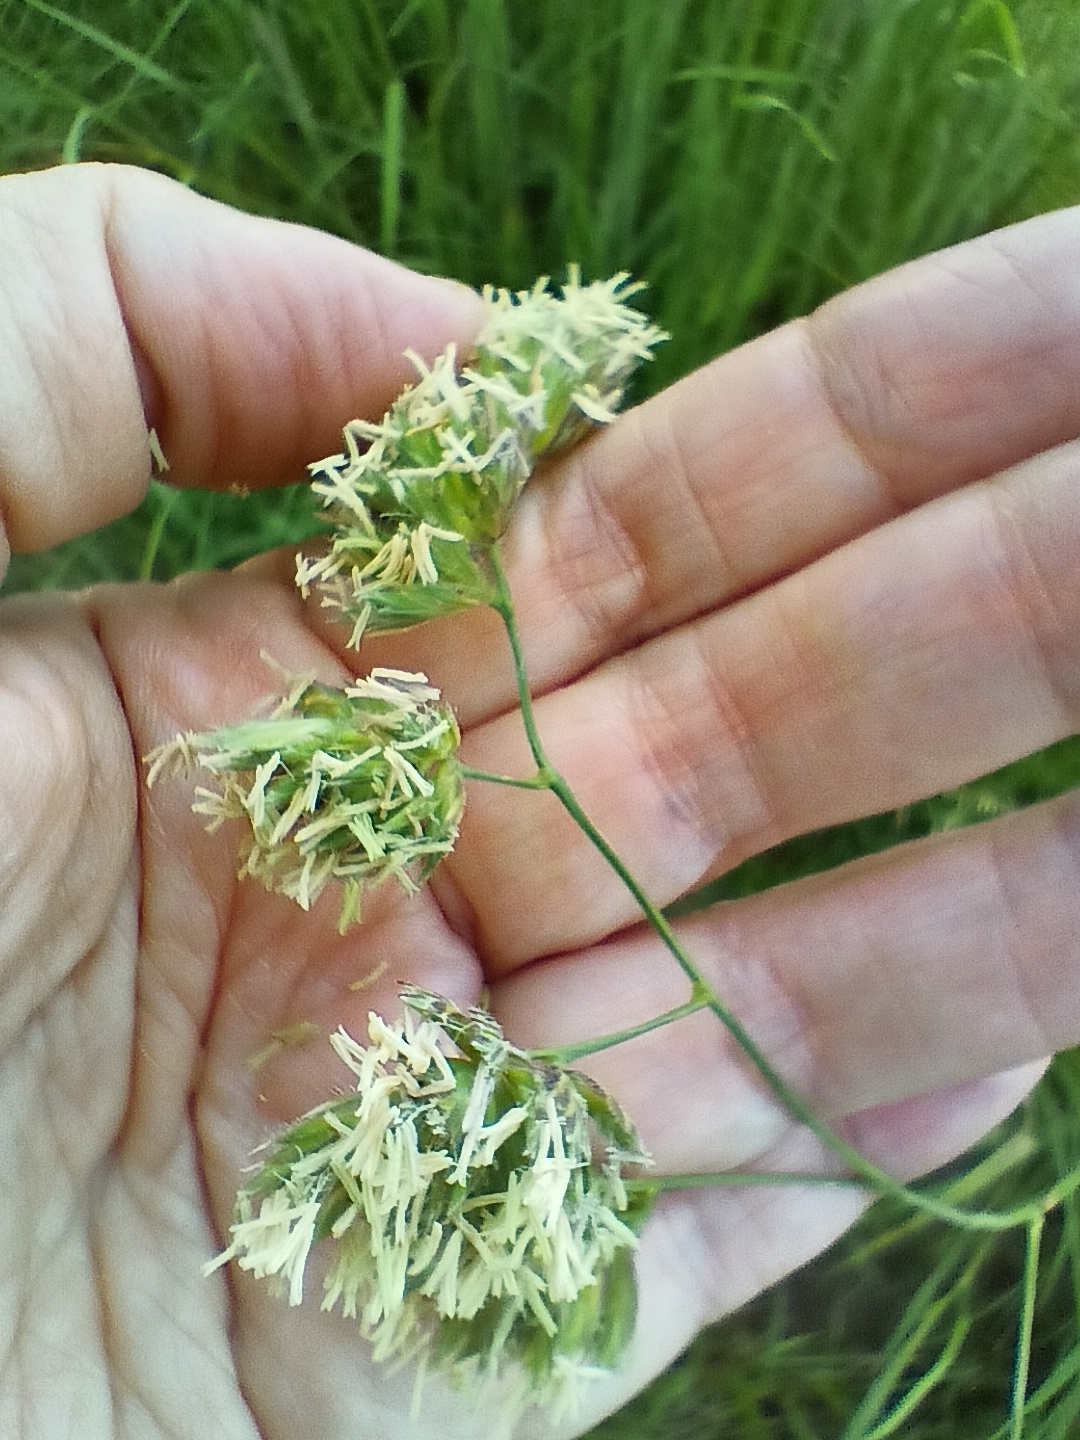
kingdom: Plantae
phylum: Tracheophyta
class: Liliopsida
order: Poales
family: Poaceae
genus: Dactylis
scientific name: Dactylis glomerata
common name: Orchardgrass
